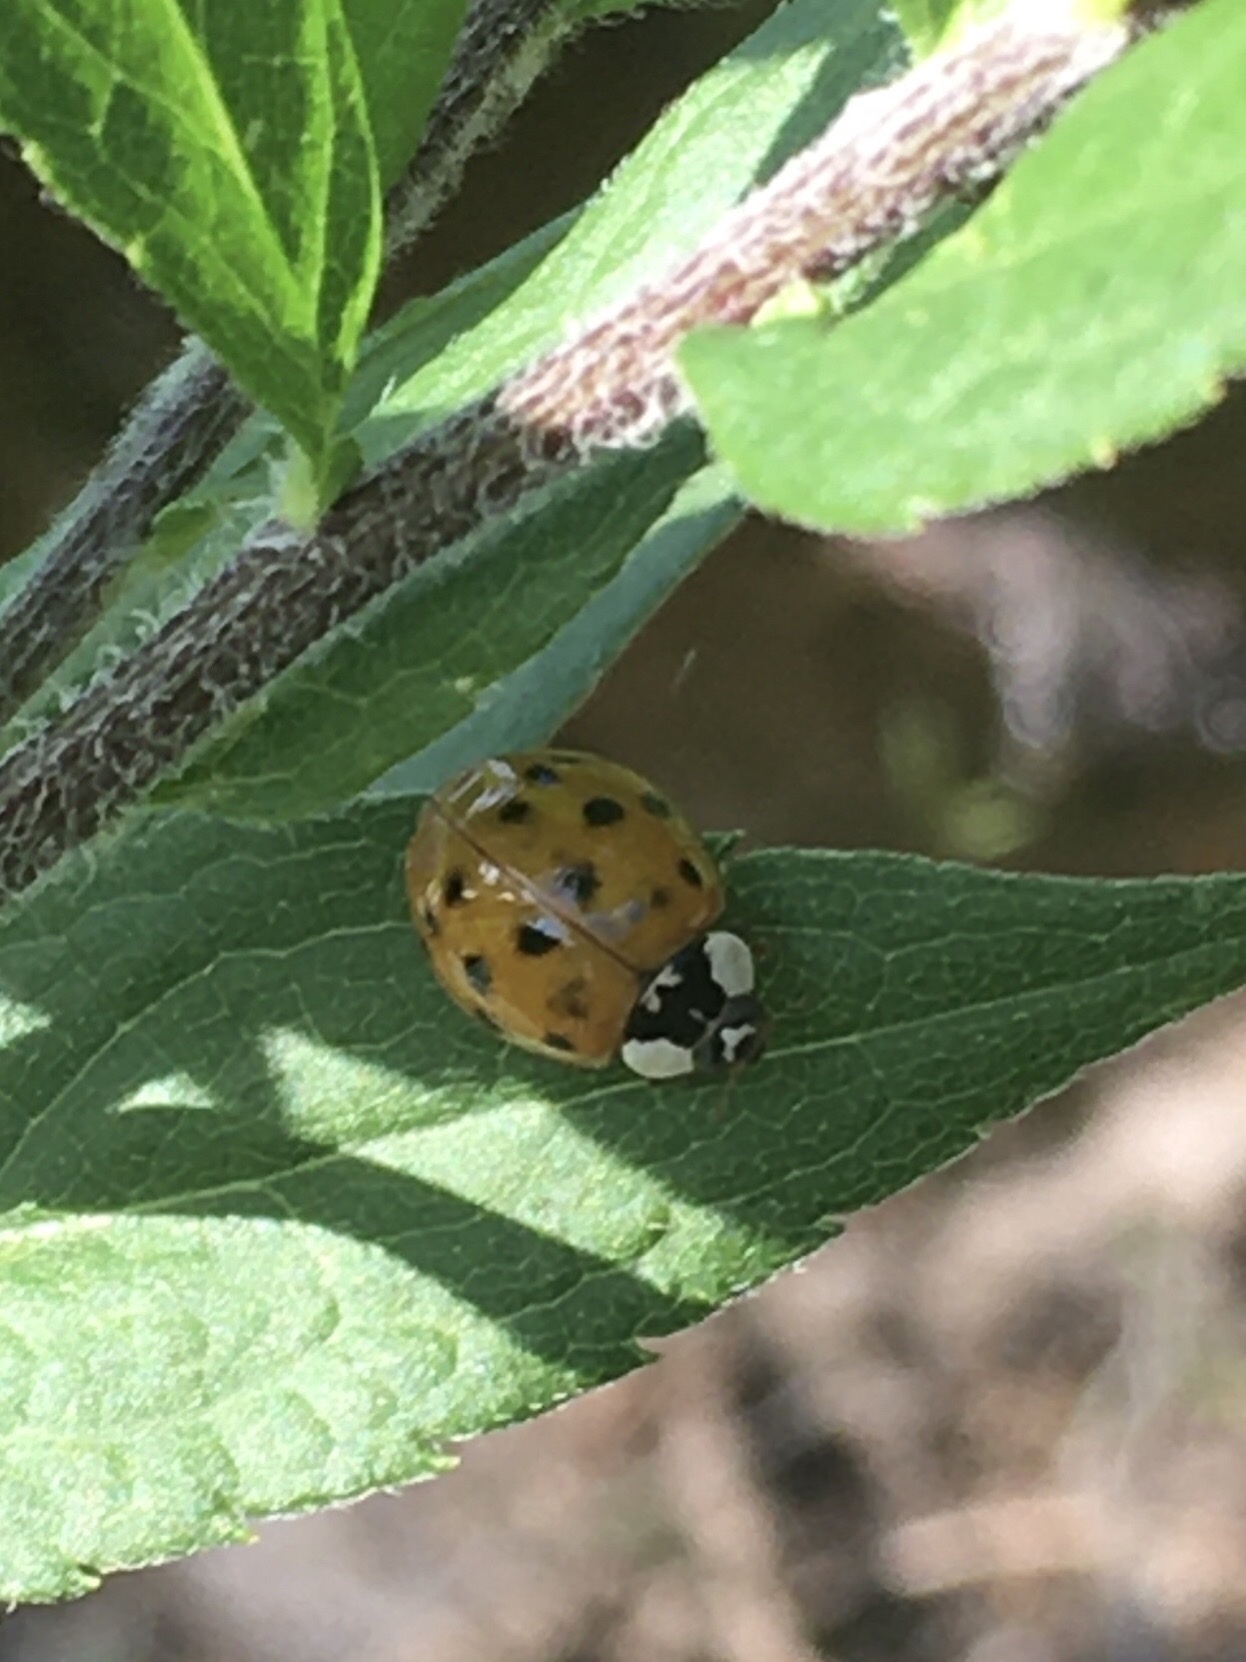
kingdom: Animalia
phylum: Arthropoda
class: Insecta
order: Coleoptera
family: Coccinellidae
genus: Harmonia
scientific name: Harmonia axyridis
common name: Harlequin ladybird
